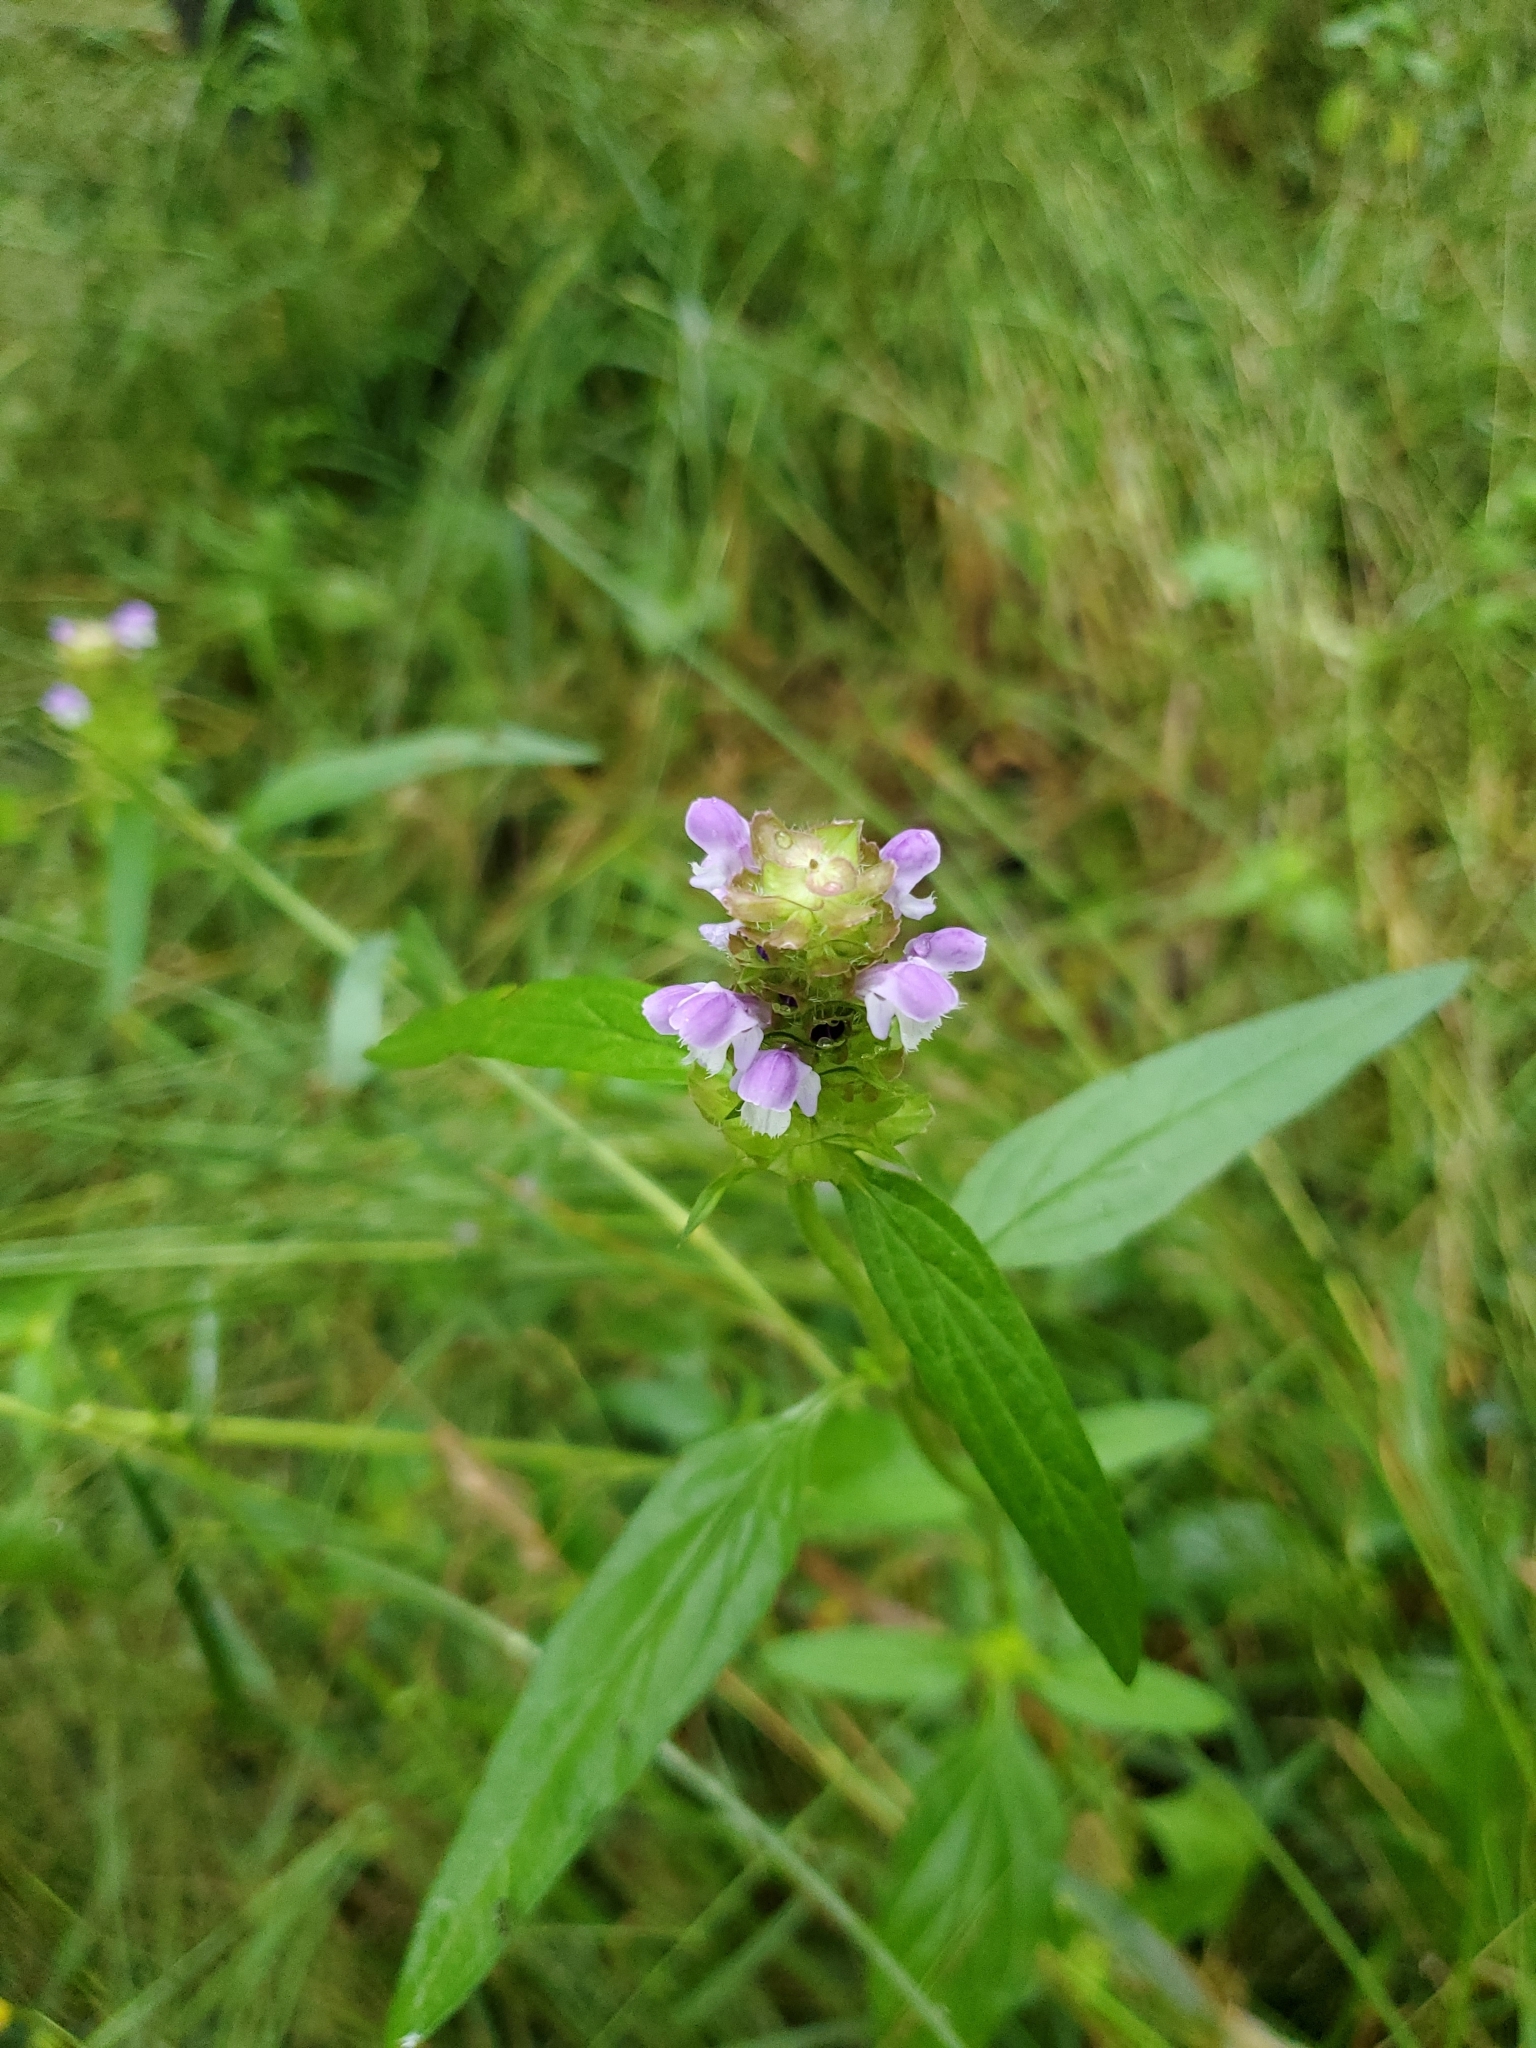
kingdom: Plantae
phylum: Tracheophyta
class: Magnoliopsida
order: Lamiales
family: Lamiaceae
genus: Prunella
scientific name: Prunella vulgaris
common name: Heal-all
